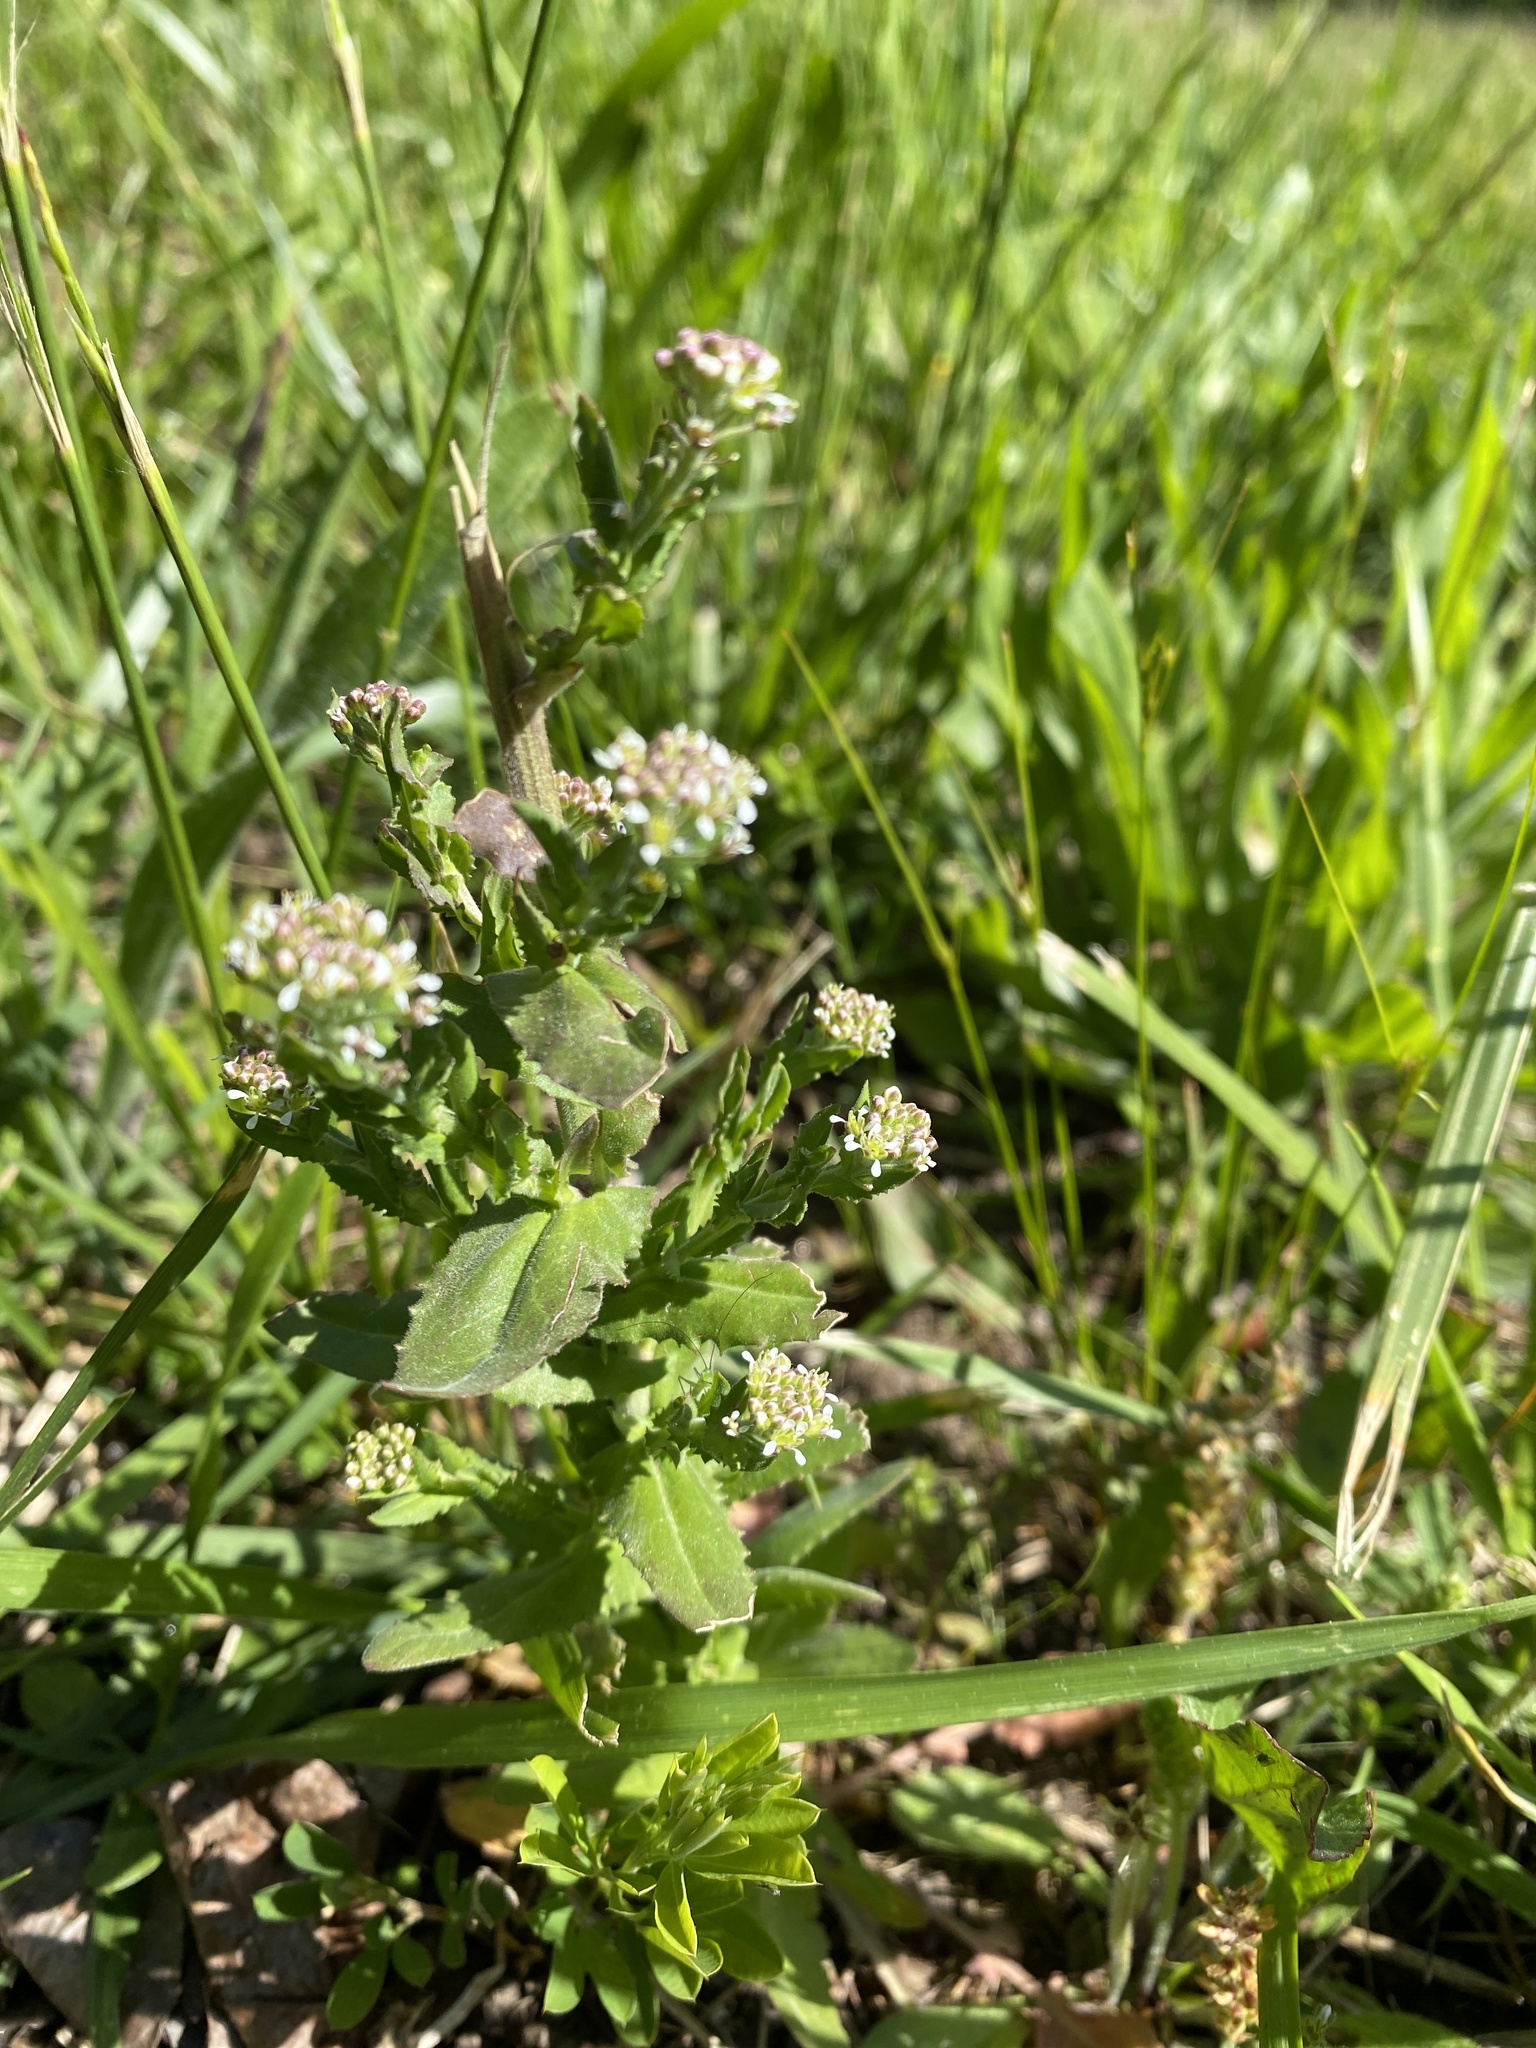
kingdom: Plantae
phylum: Tracheophyta
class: Magnoliopsida
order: Brassicales
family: Brassicaceae
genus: Lepidium
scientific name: Lepidium campestre
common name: Field pepperwort
